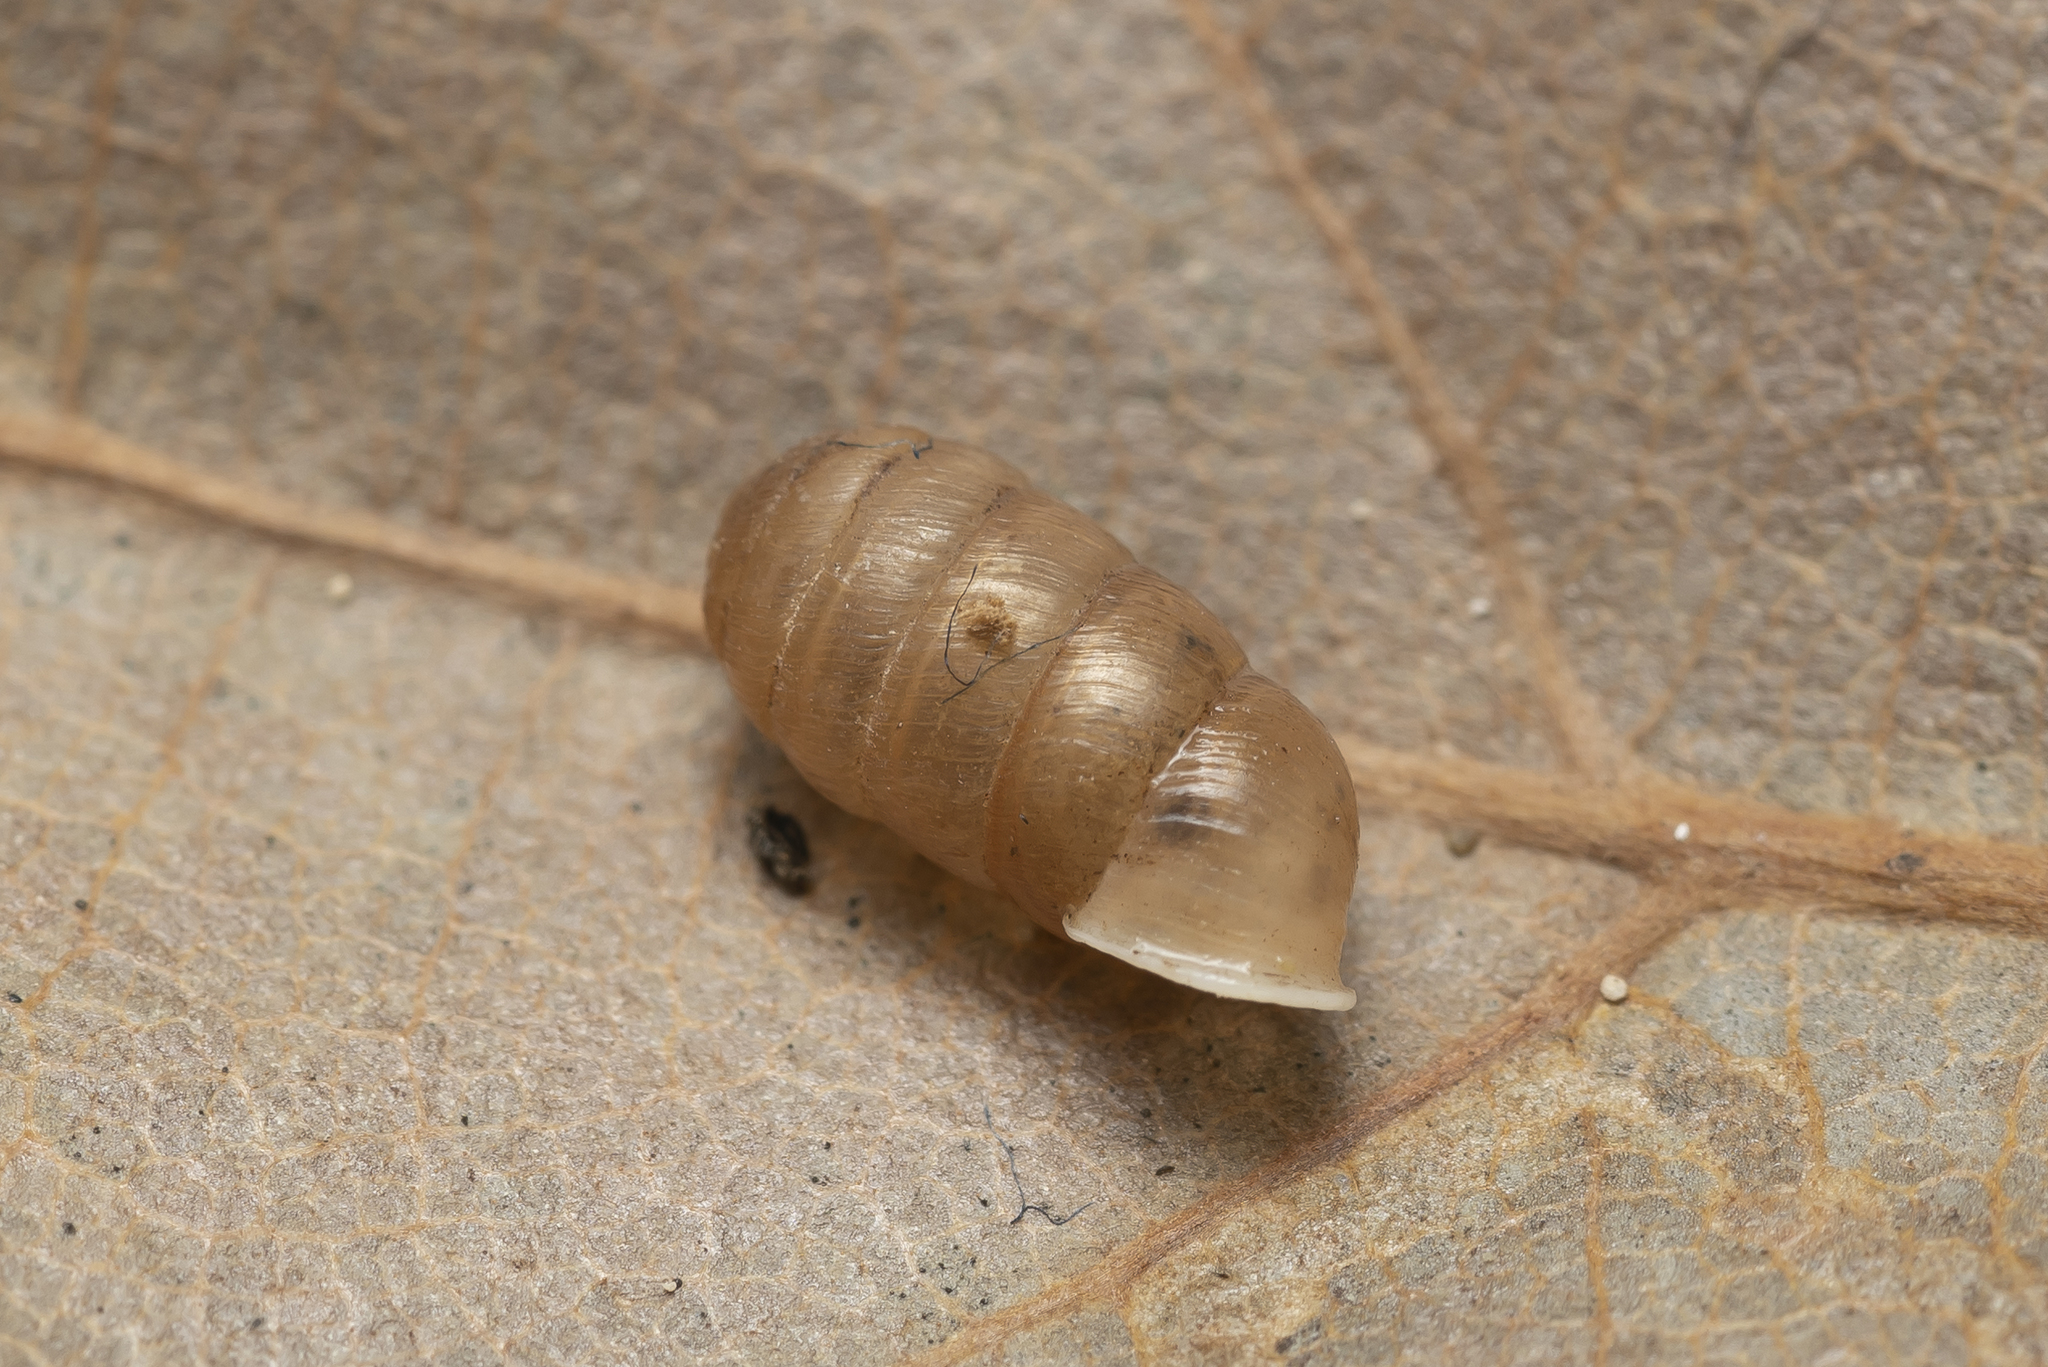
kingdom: Animalia
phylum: Mollusca
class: Gastropoda
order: Stylommatophora
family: Orculidae
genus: Orculella
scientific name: Orculella ignorata
